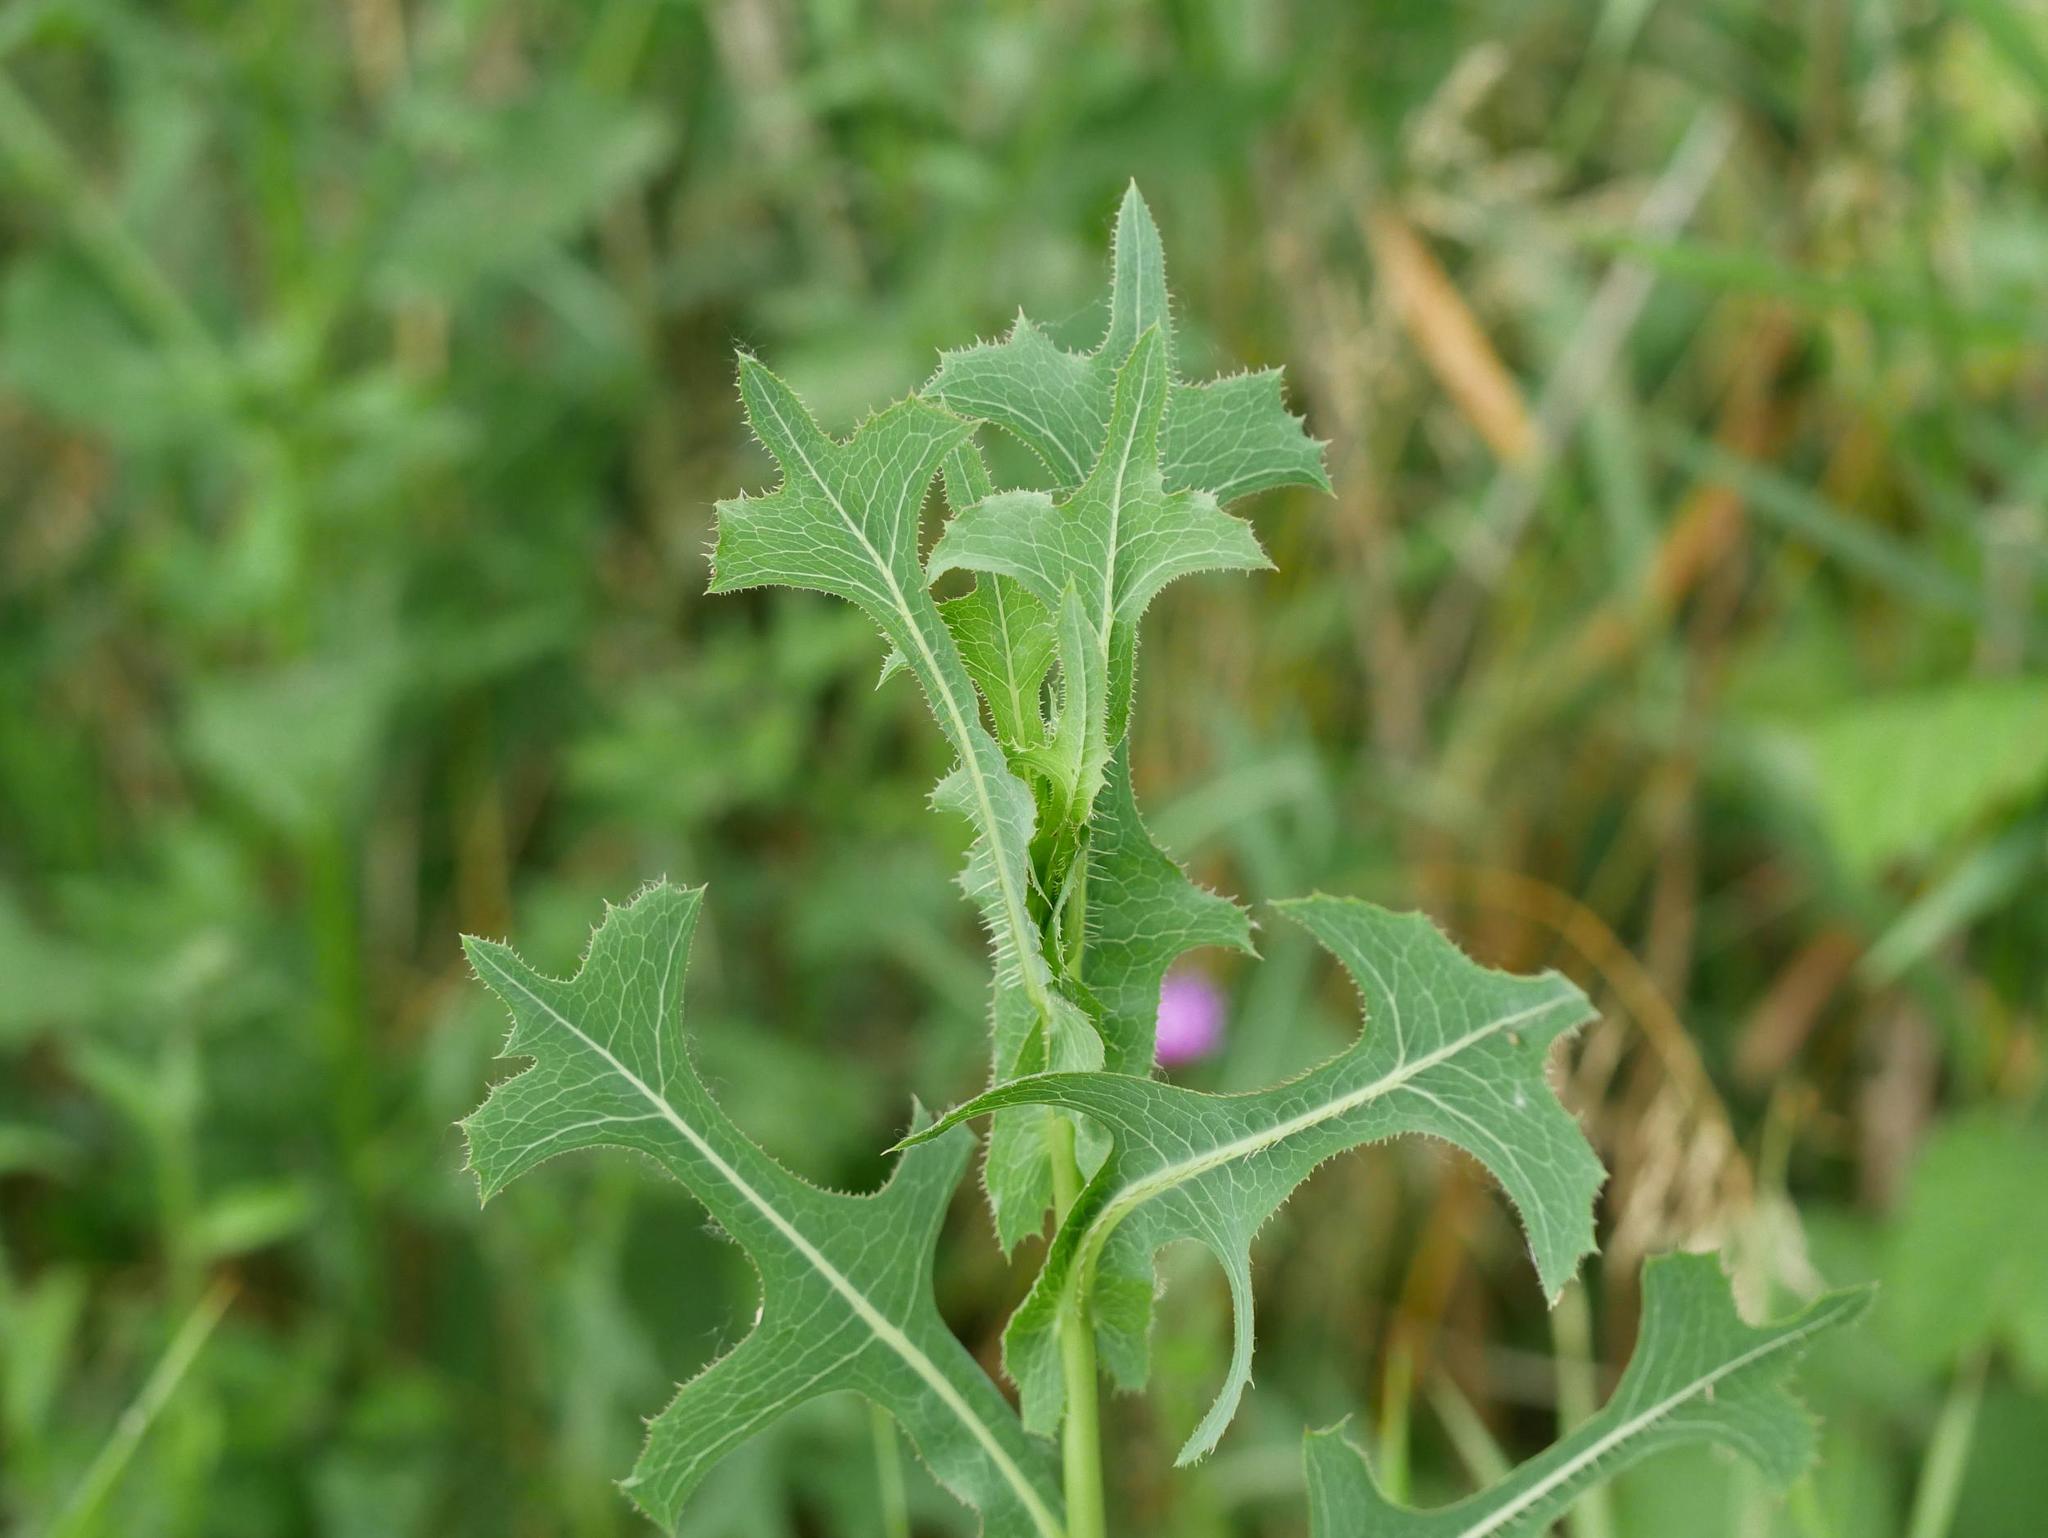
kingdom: Plantae
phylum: Tracheophyta
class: Magnoliopsida
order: Asterales
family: Asteraceae
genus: Lactuca
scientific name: Lactuca serriola
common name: Prickly lettuce
